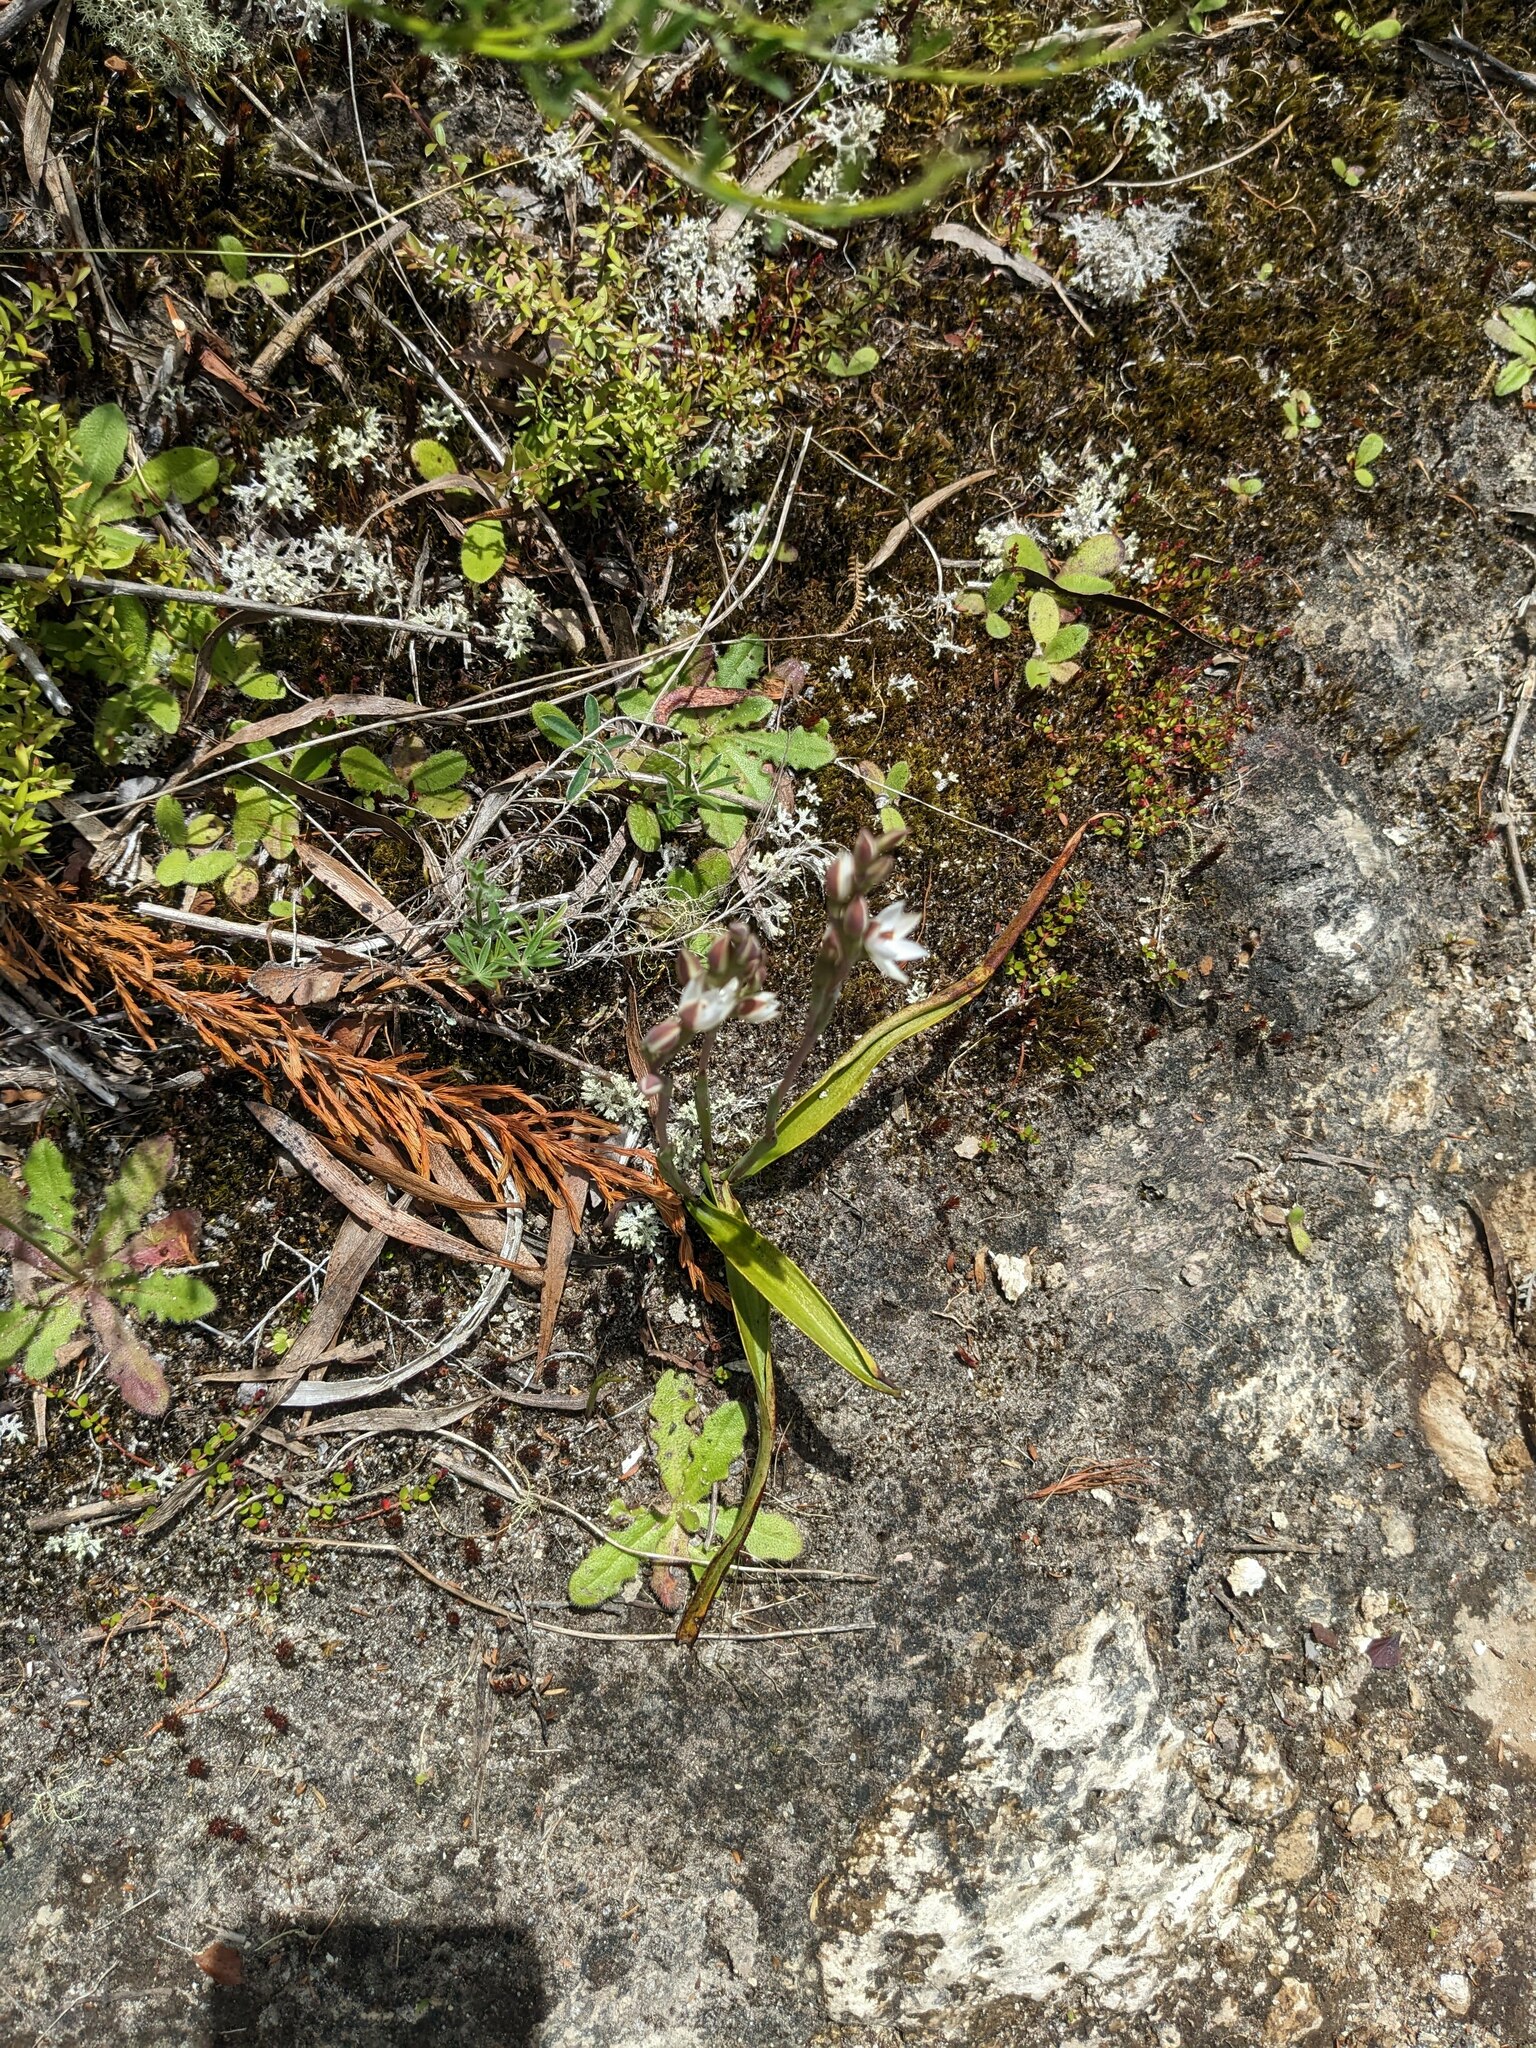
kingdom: Plantae
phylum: Tracheophyta
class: Liliopsida
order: Asparagales
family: Orchidaceae
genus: Thelymitra
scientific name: Thelymitra longifolia
